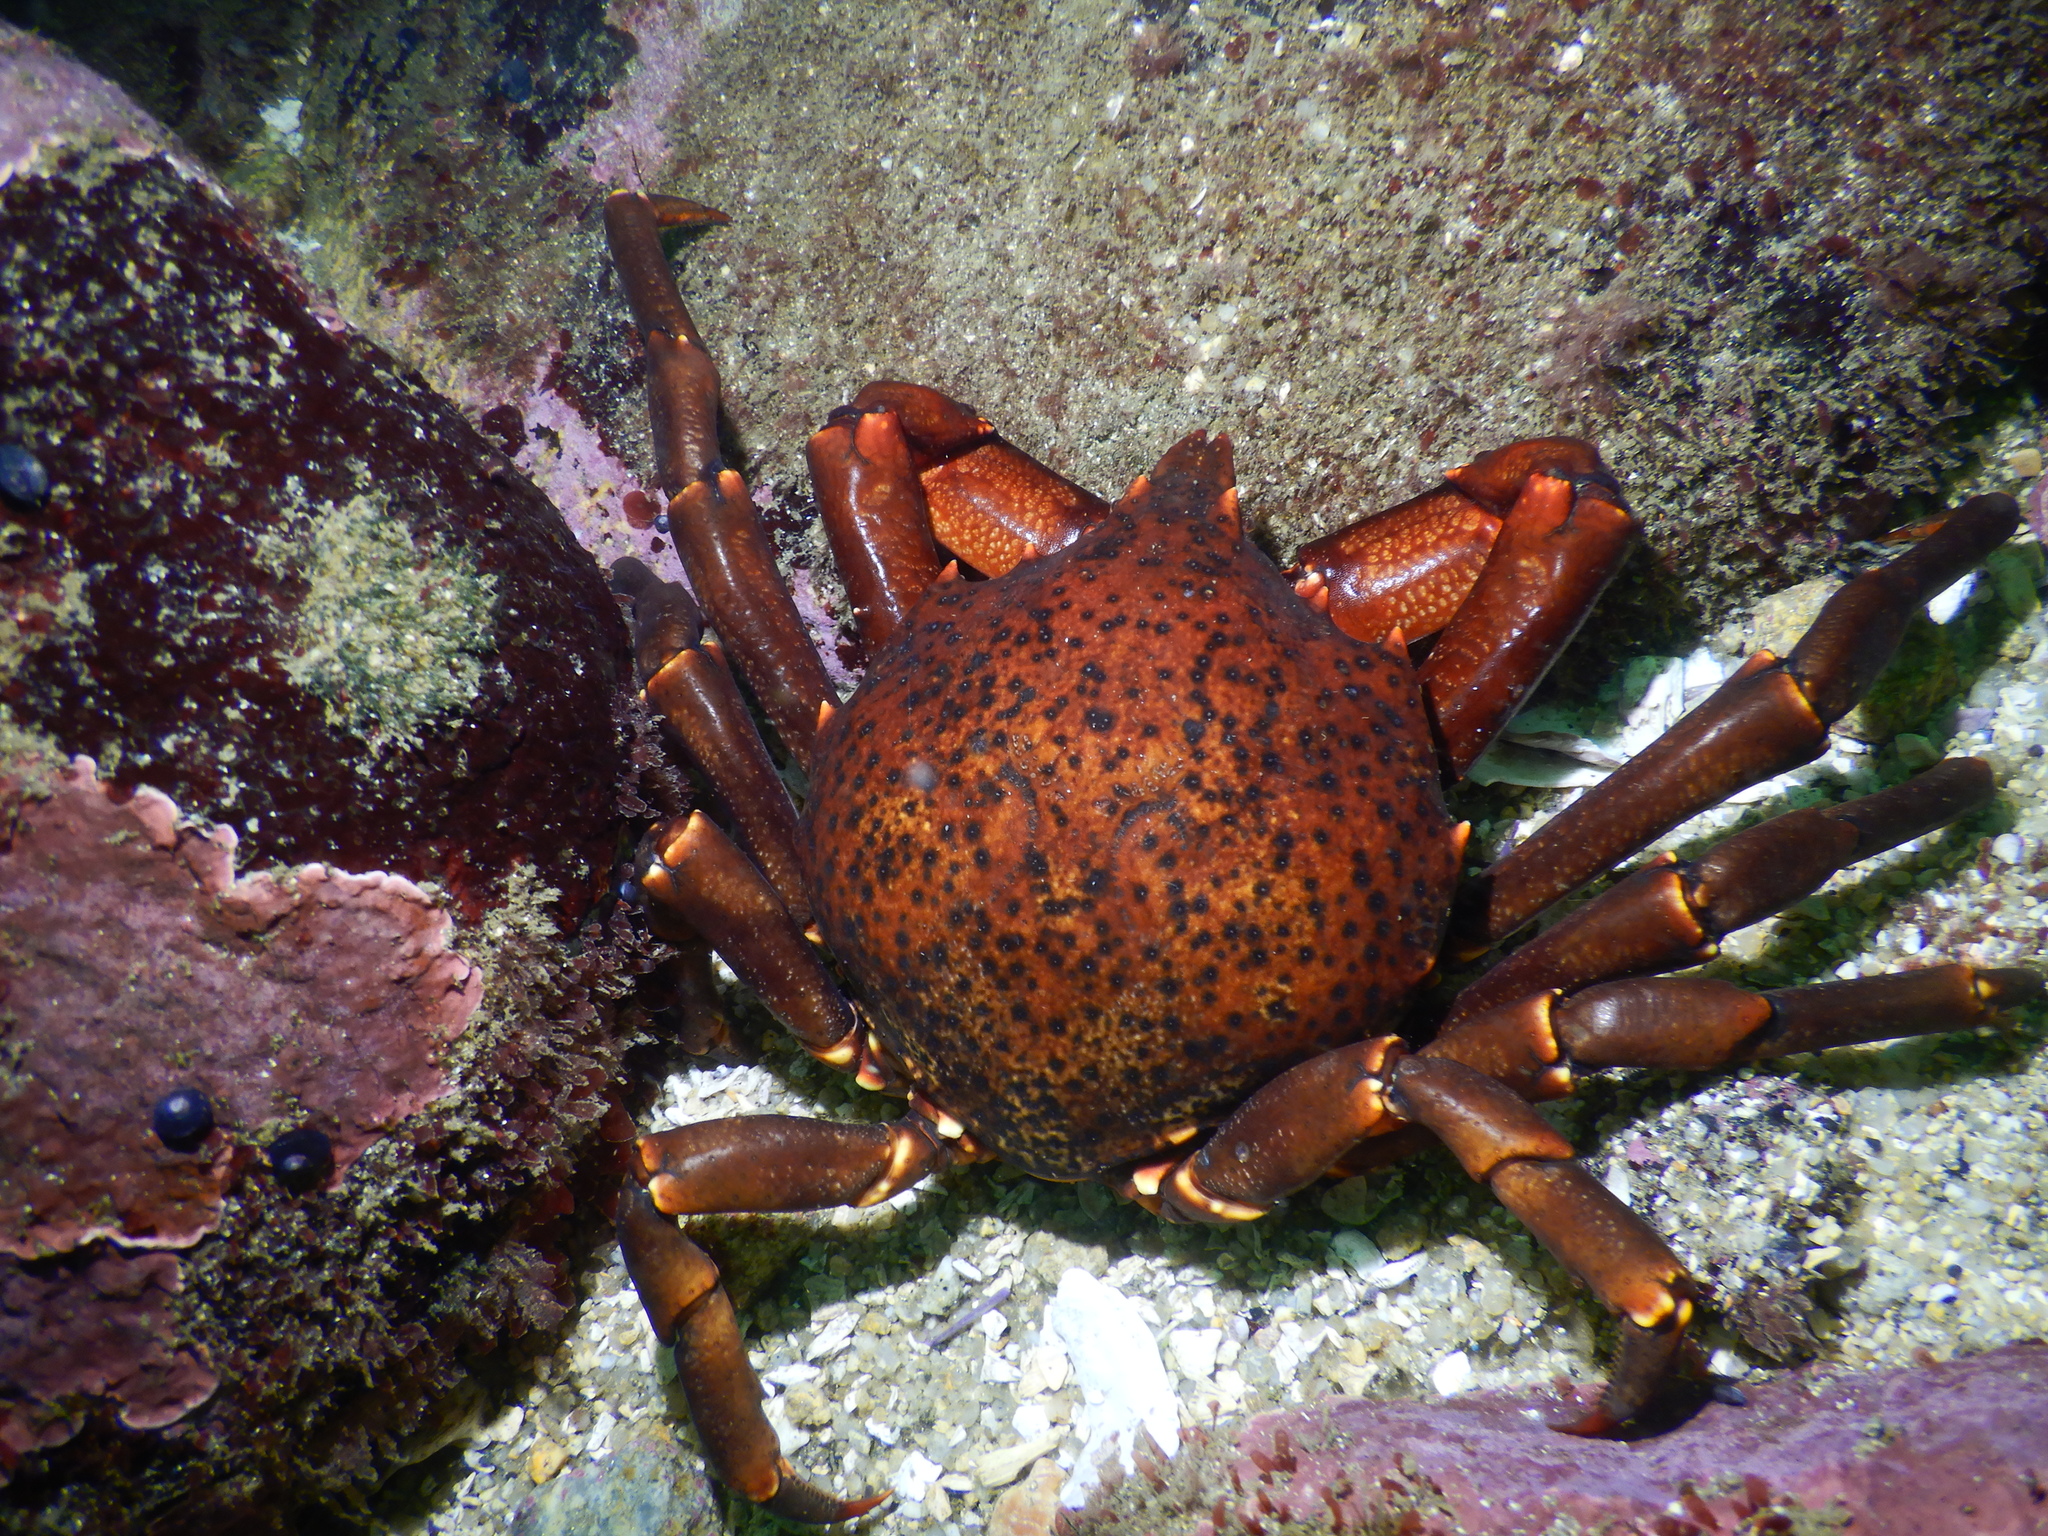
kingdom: Animalia
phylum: Arthropoda
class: Malacostraca
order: Decapoda
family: Epialtidae
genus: Taliepus
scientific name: Taliepus dentatus
